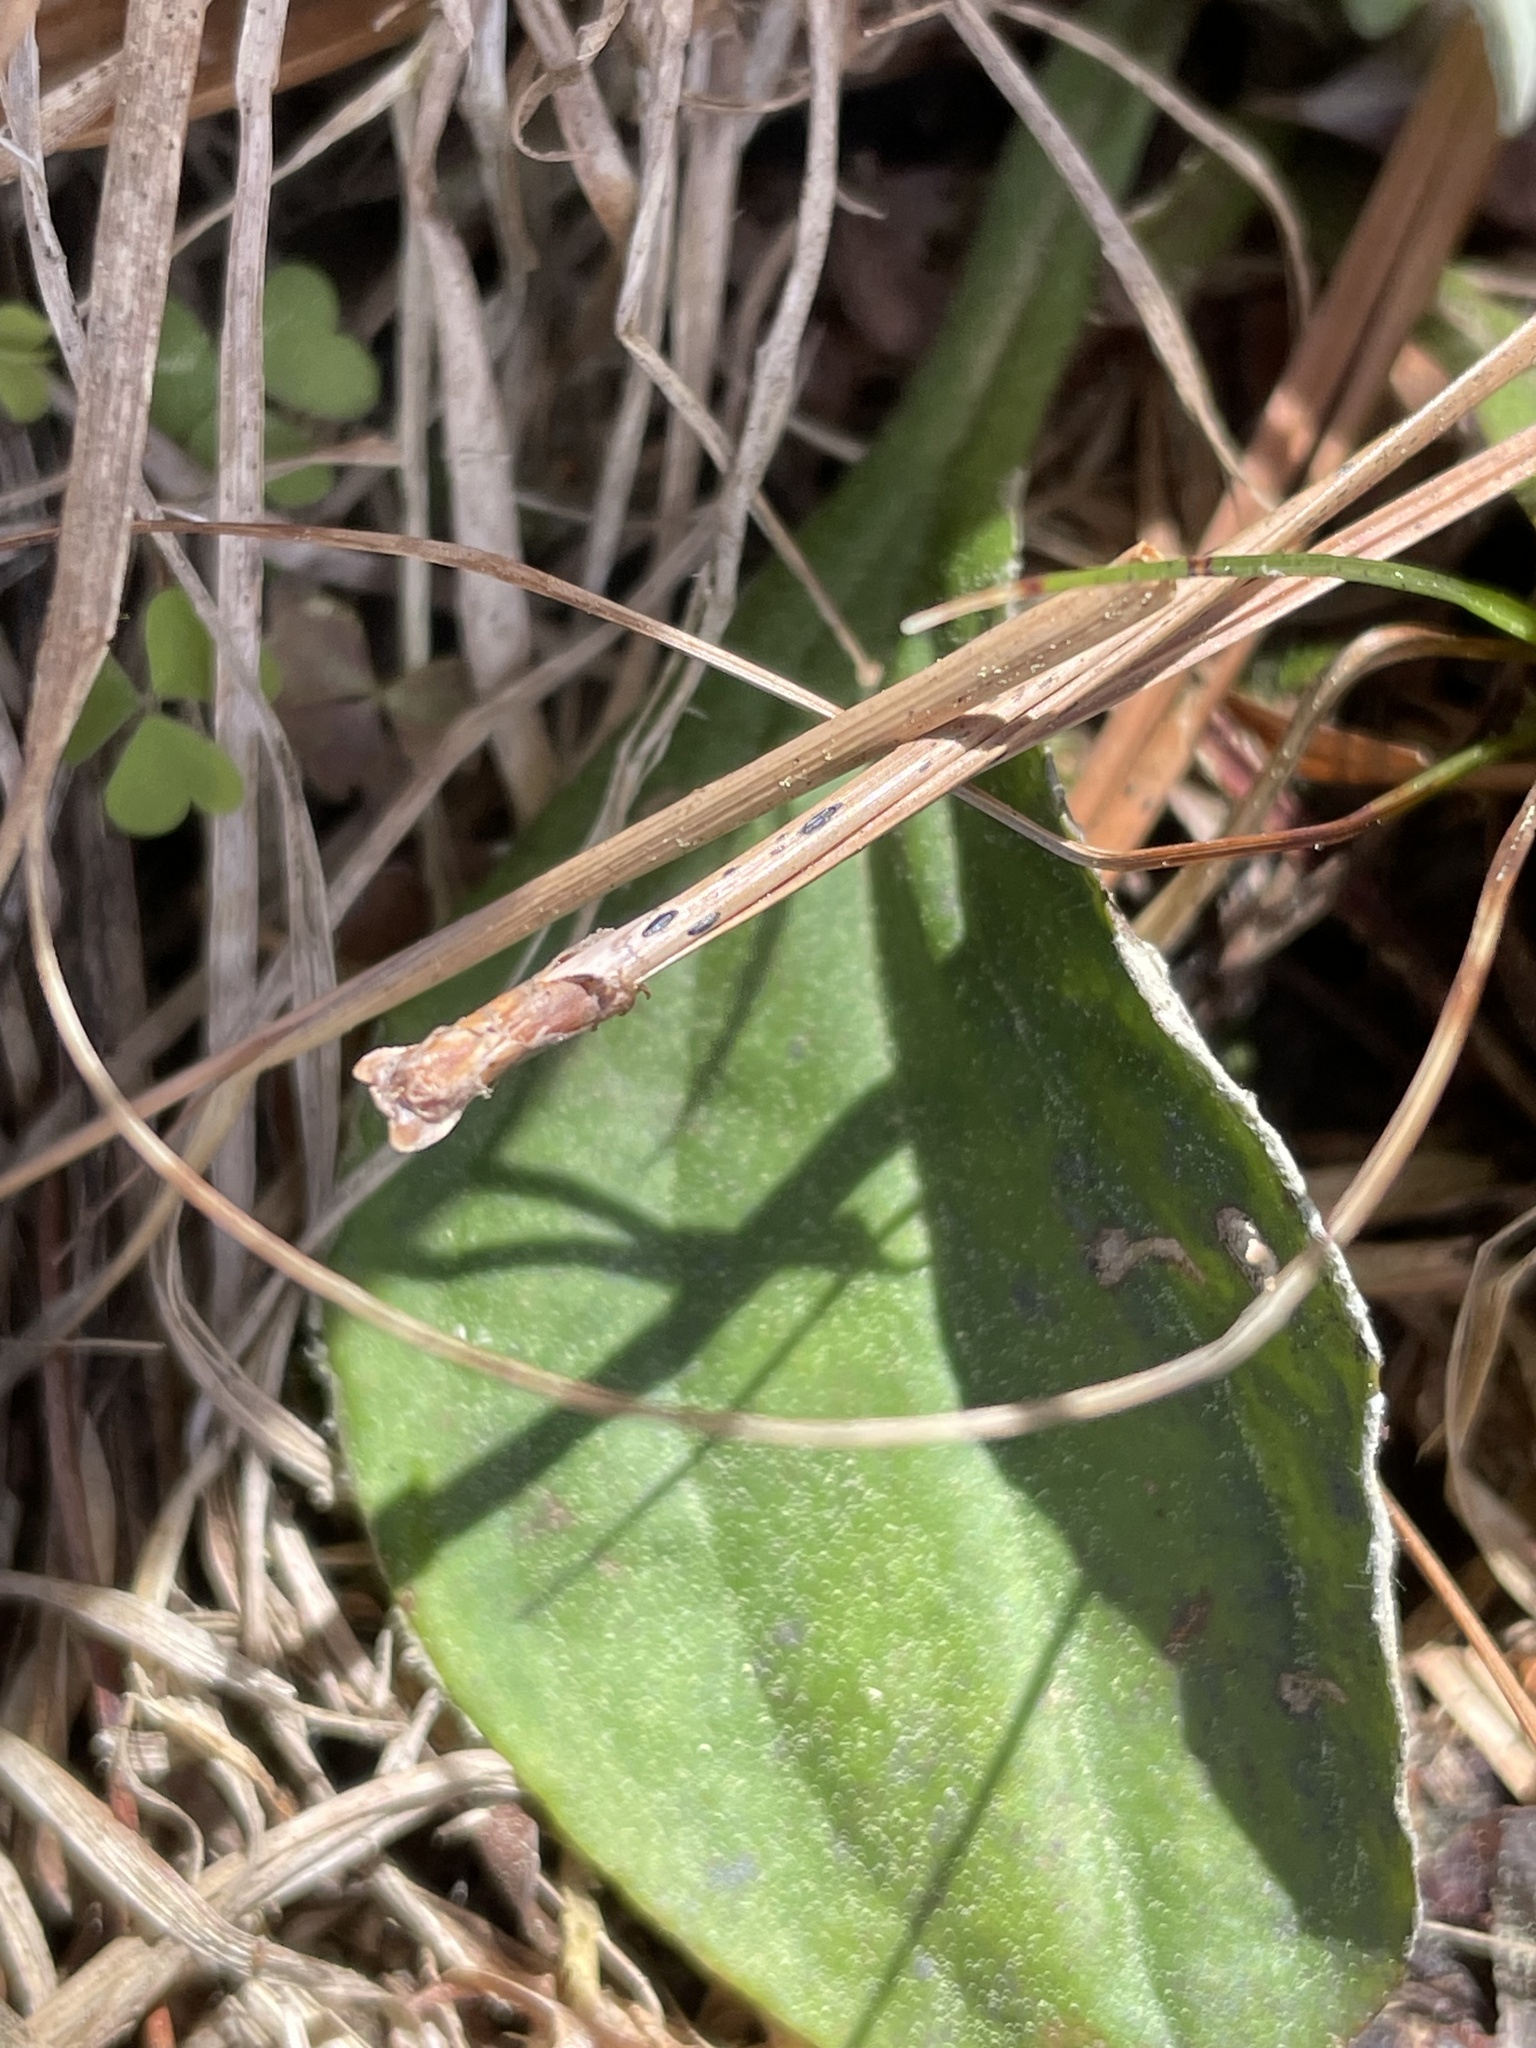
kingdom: Plantae
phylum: Tracheophyta
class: Magnoliopsida
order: Asterales
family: Asteraceae
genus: Antennaria
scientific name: Antennaria parlinii
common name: Parlin's pussytoes
